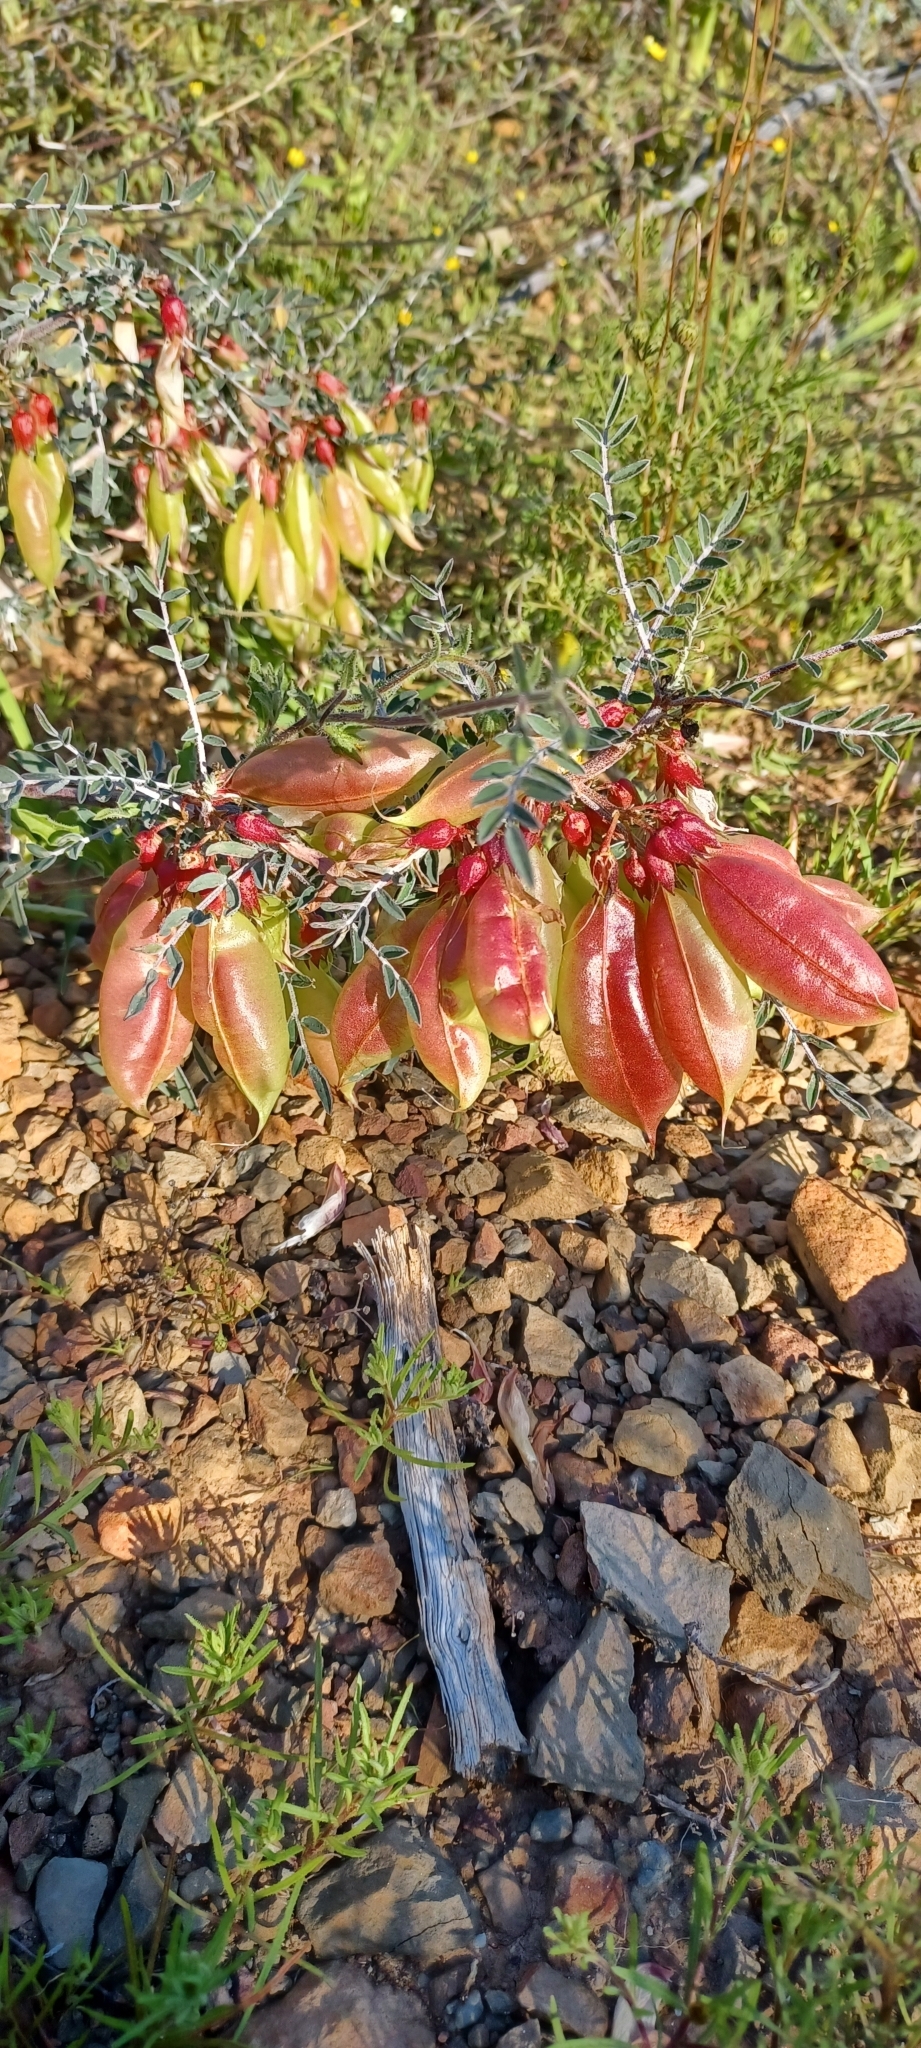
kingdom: Plantae
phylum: Tracheophyta
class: Magnoliopsida
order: Fabales
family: Fabaceae
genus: Lessertia
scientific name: Lessertia frutescens
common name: Balloon-pea
